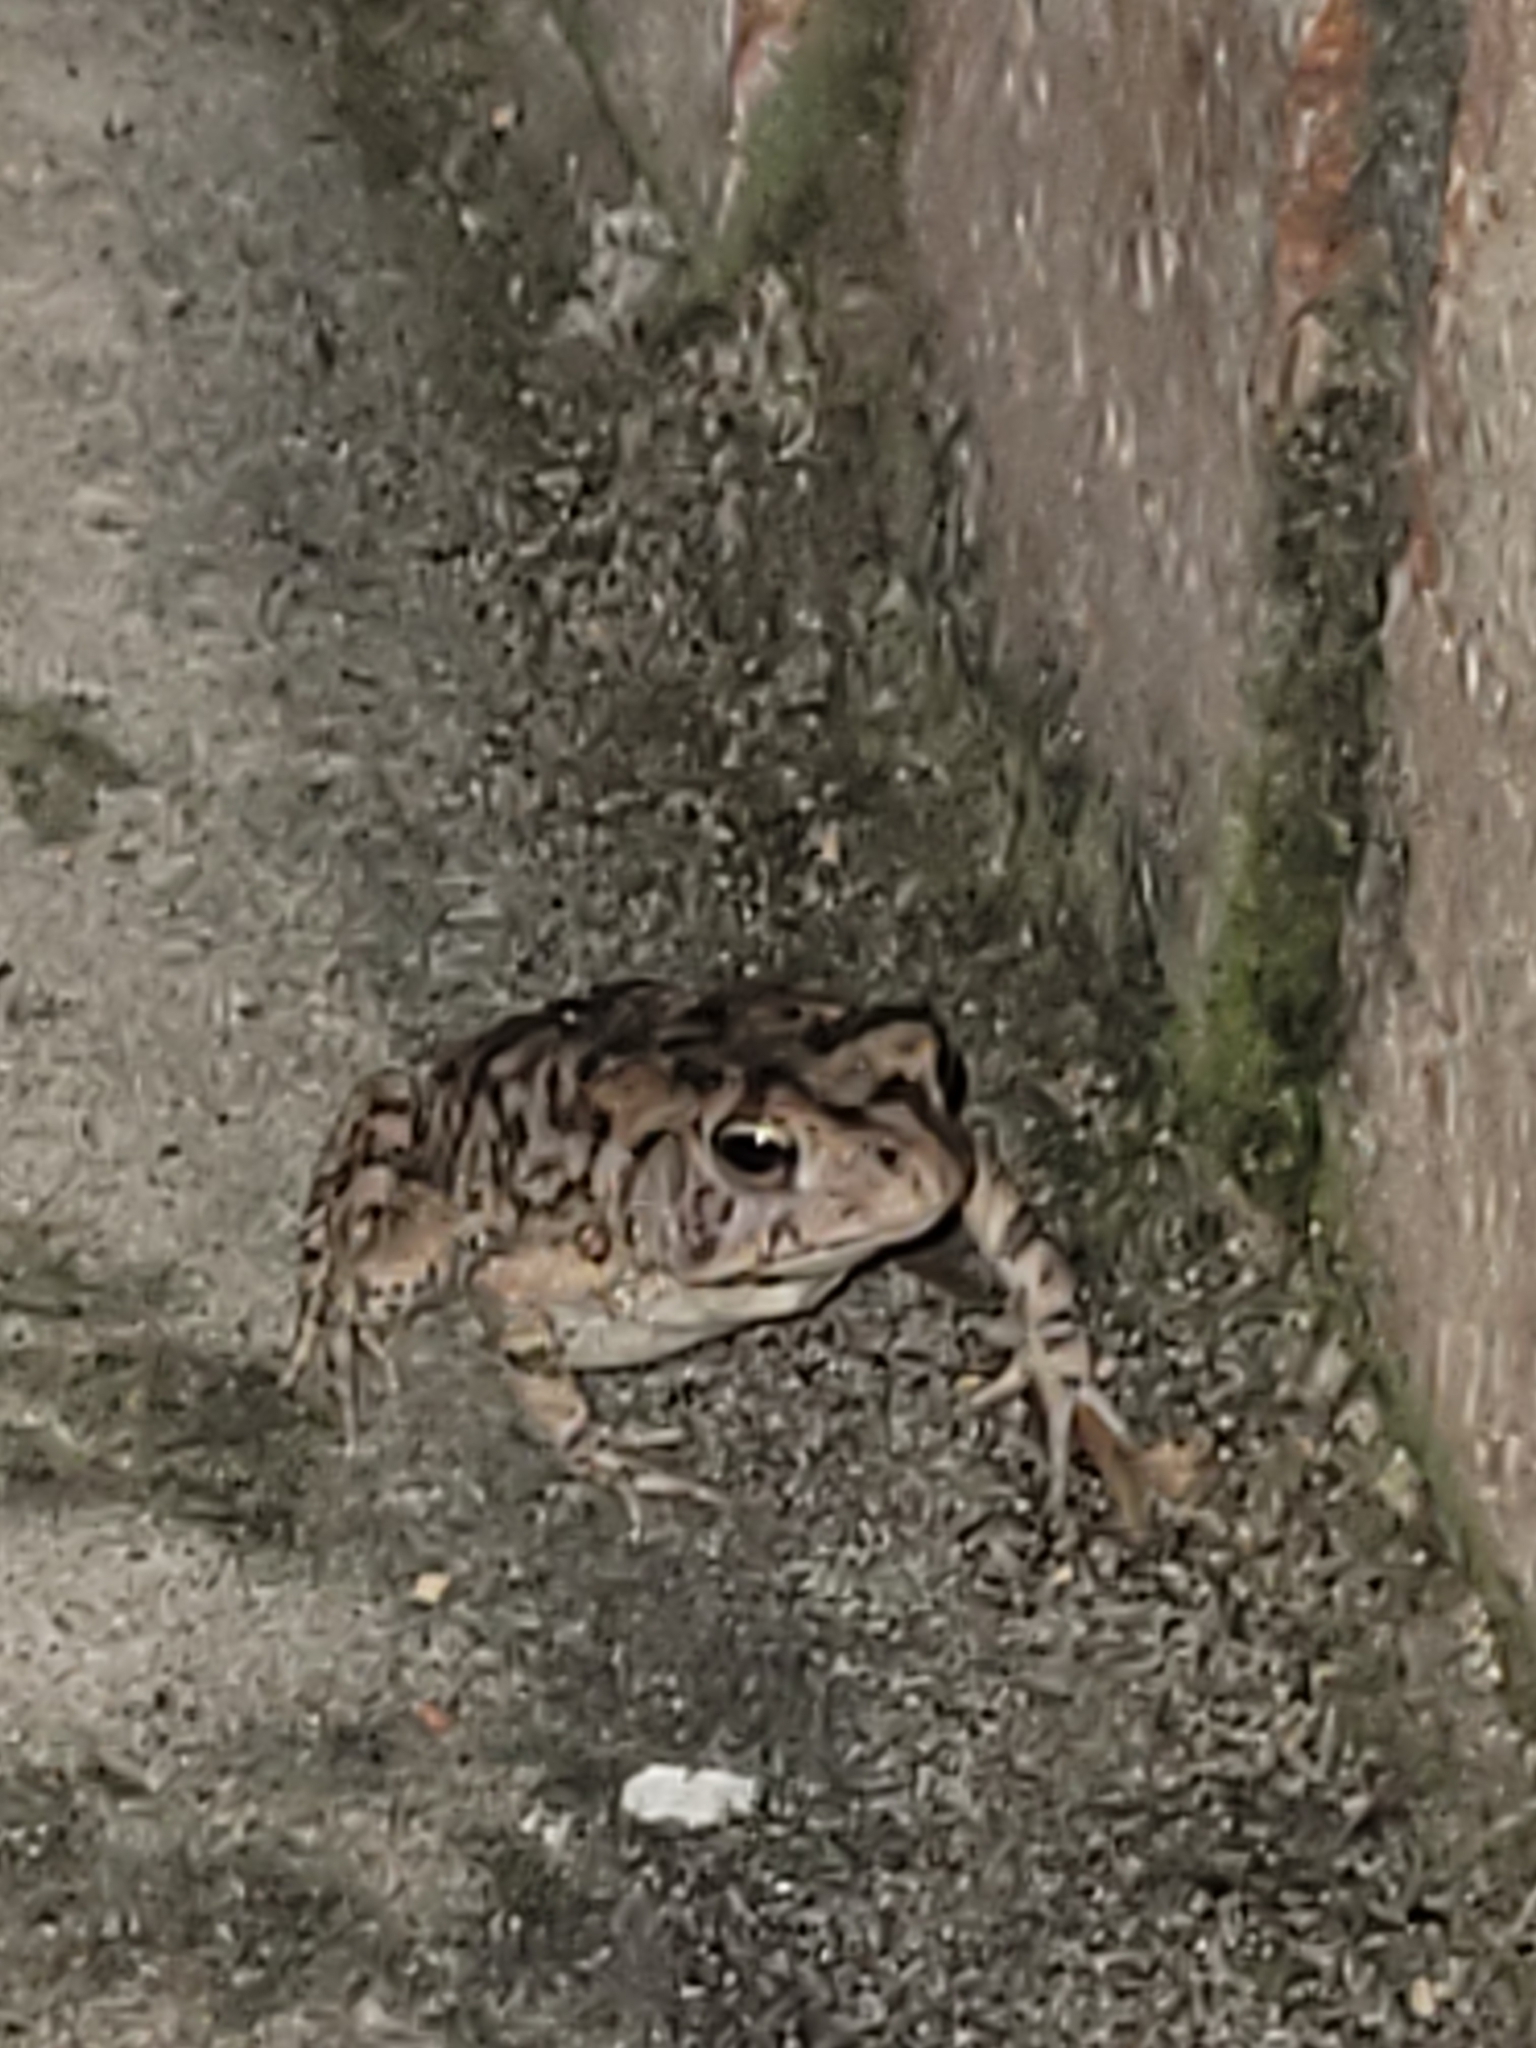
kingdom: Animalia
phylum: Chordata
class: Amphibia
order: Anura
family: Bufonidae
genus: Anaxyrus
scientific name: Anaxyrus terrestris
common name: Southern toad
